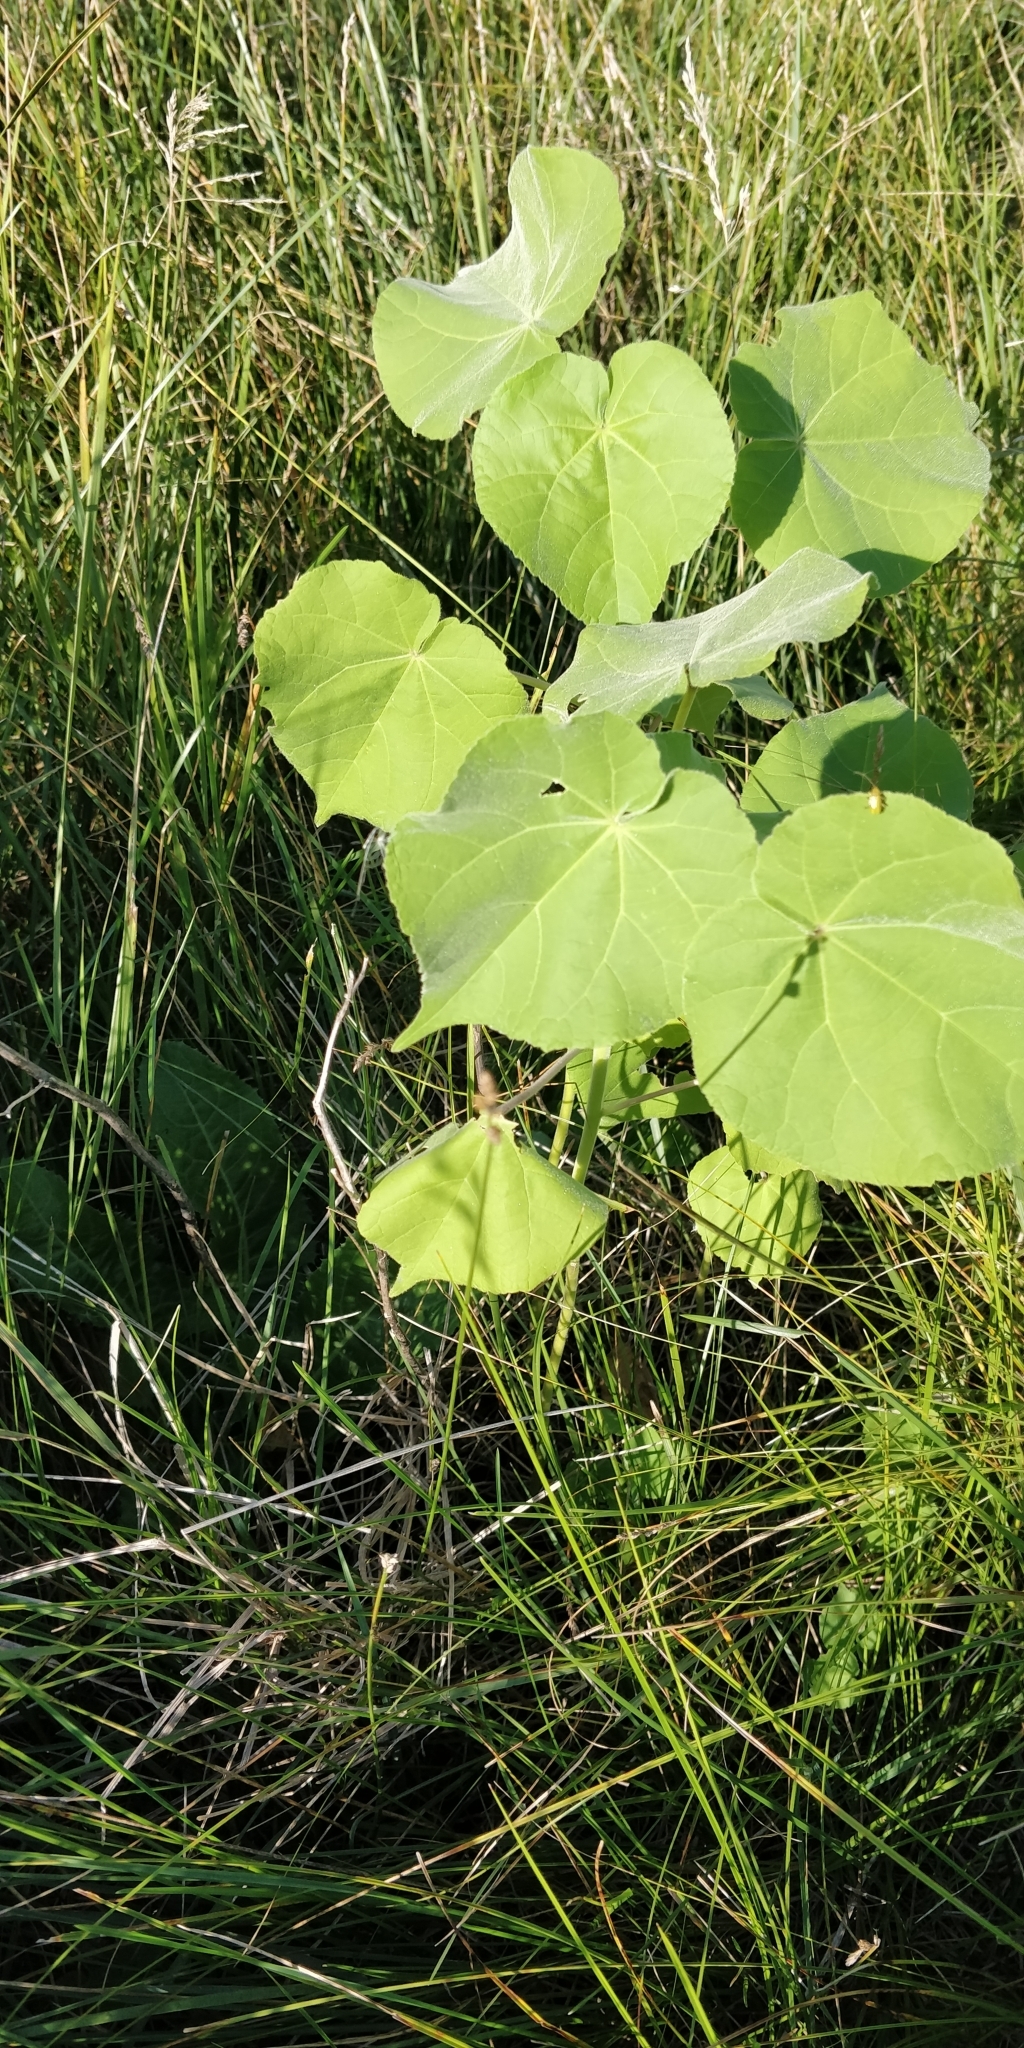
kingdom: Plantae
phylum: Tracheophyta
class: Magnoliopsida
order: Malvales
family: Malvaceae
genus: Abutilon
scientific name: Abutilon theophrasti
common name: Velvetleaf
